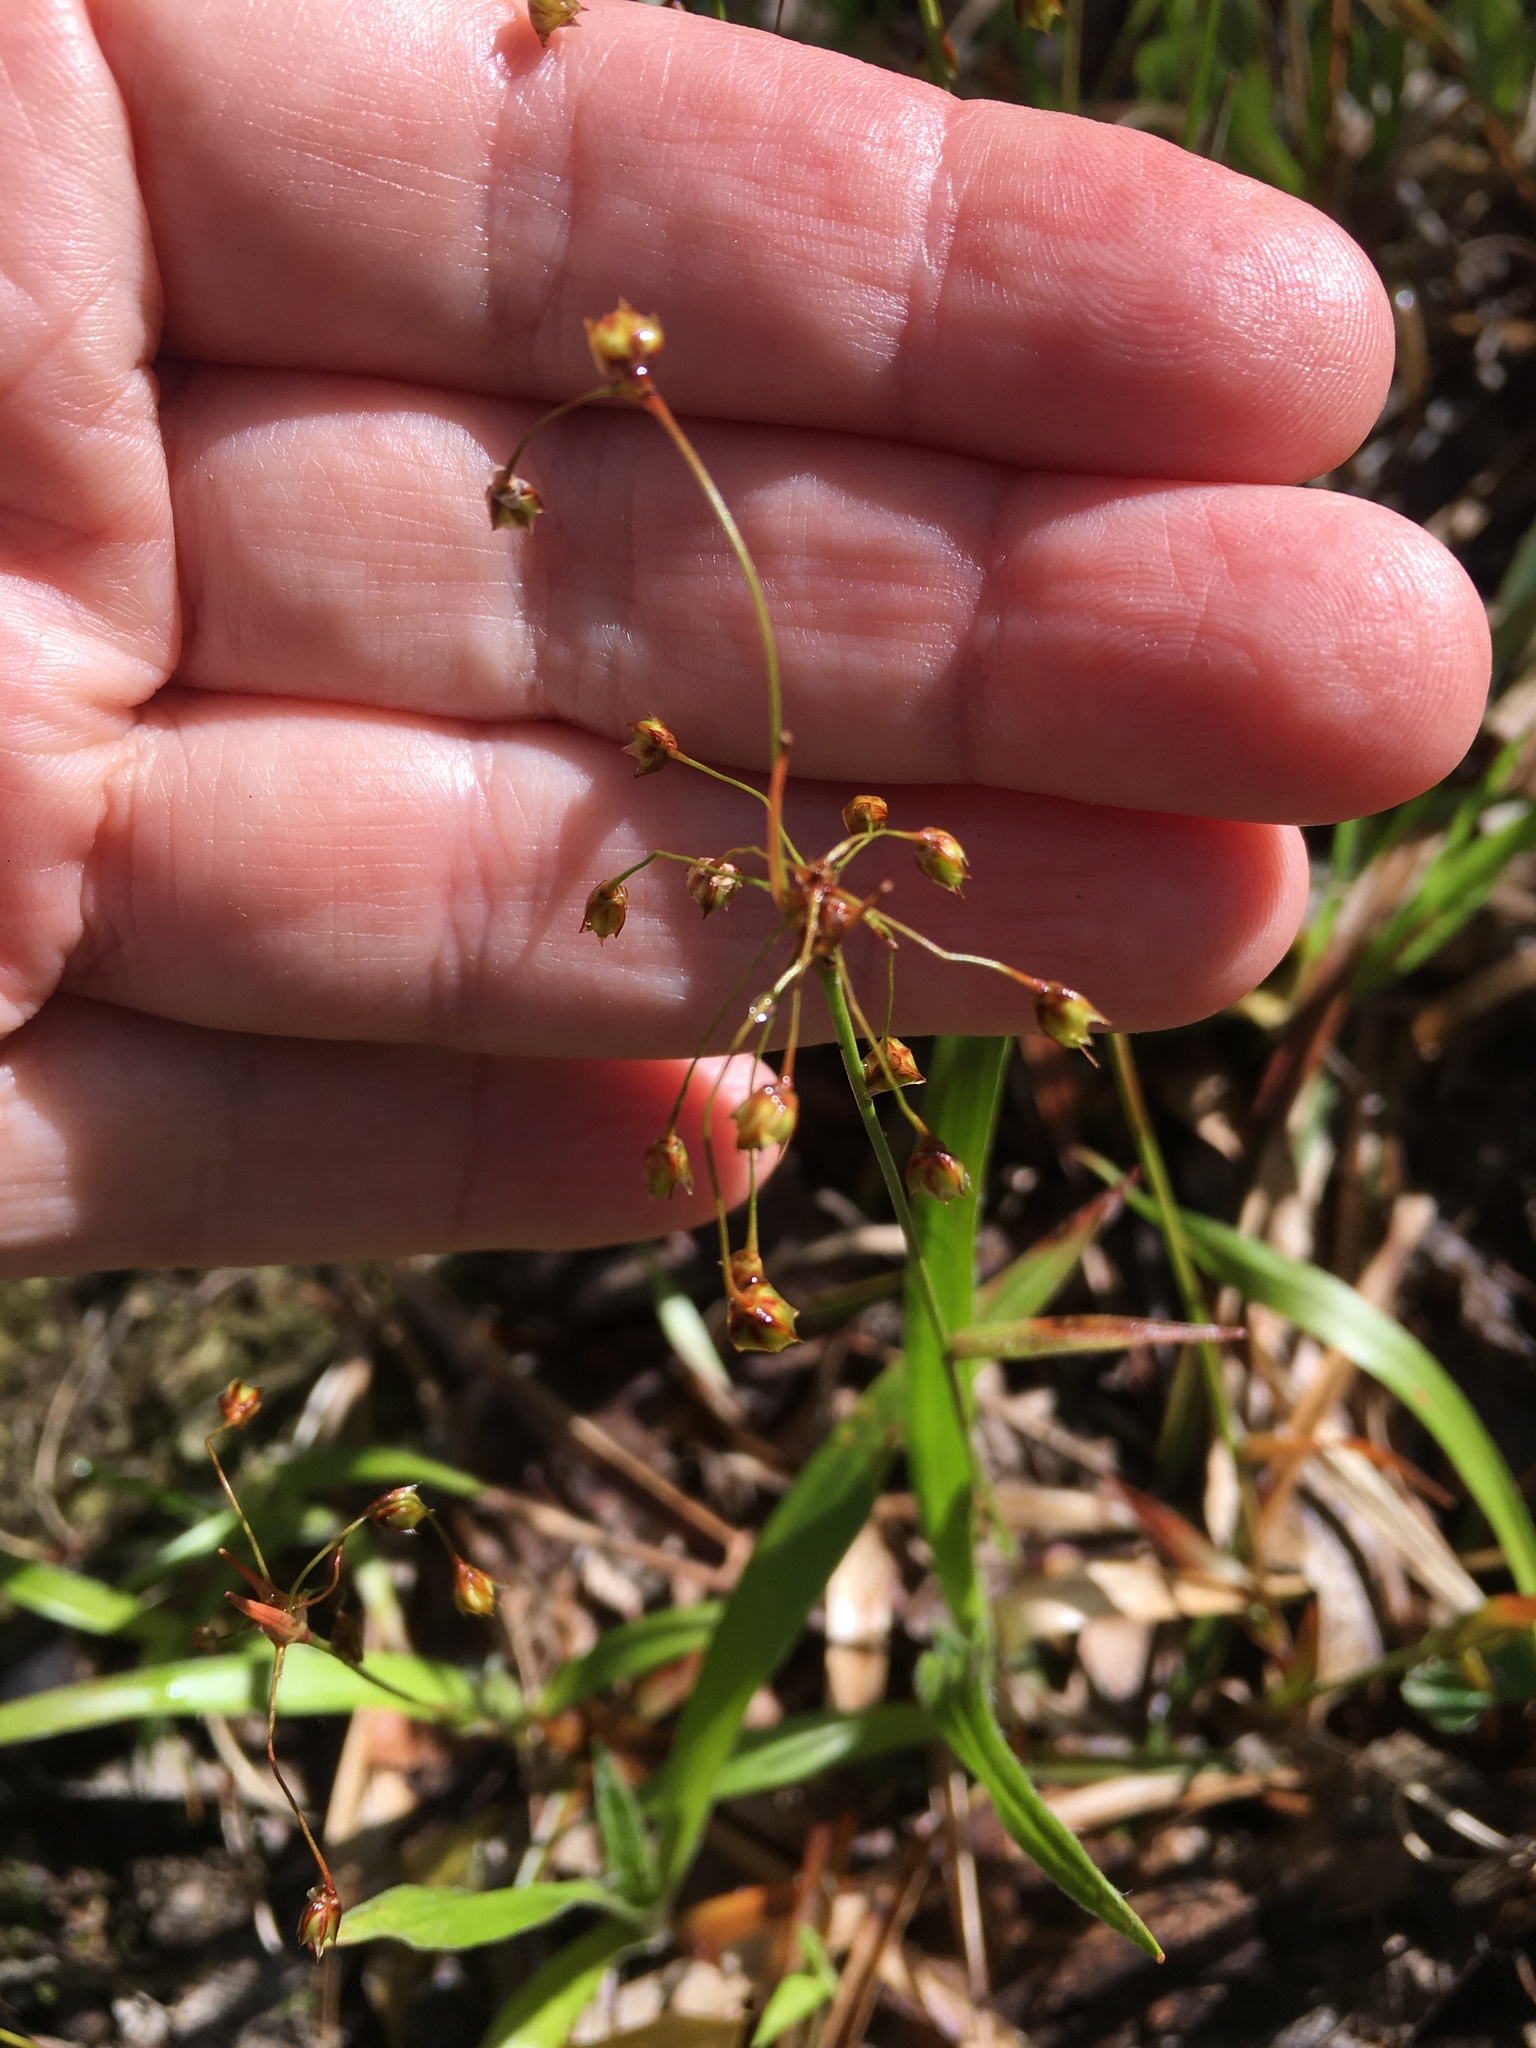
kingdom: Plantae
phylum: Tracheophyta
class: Liliopsida
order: Poales
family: Juncaceae
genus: Luzula
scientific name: Luzula acuminata
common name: Hairy woodrush
